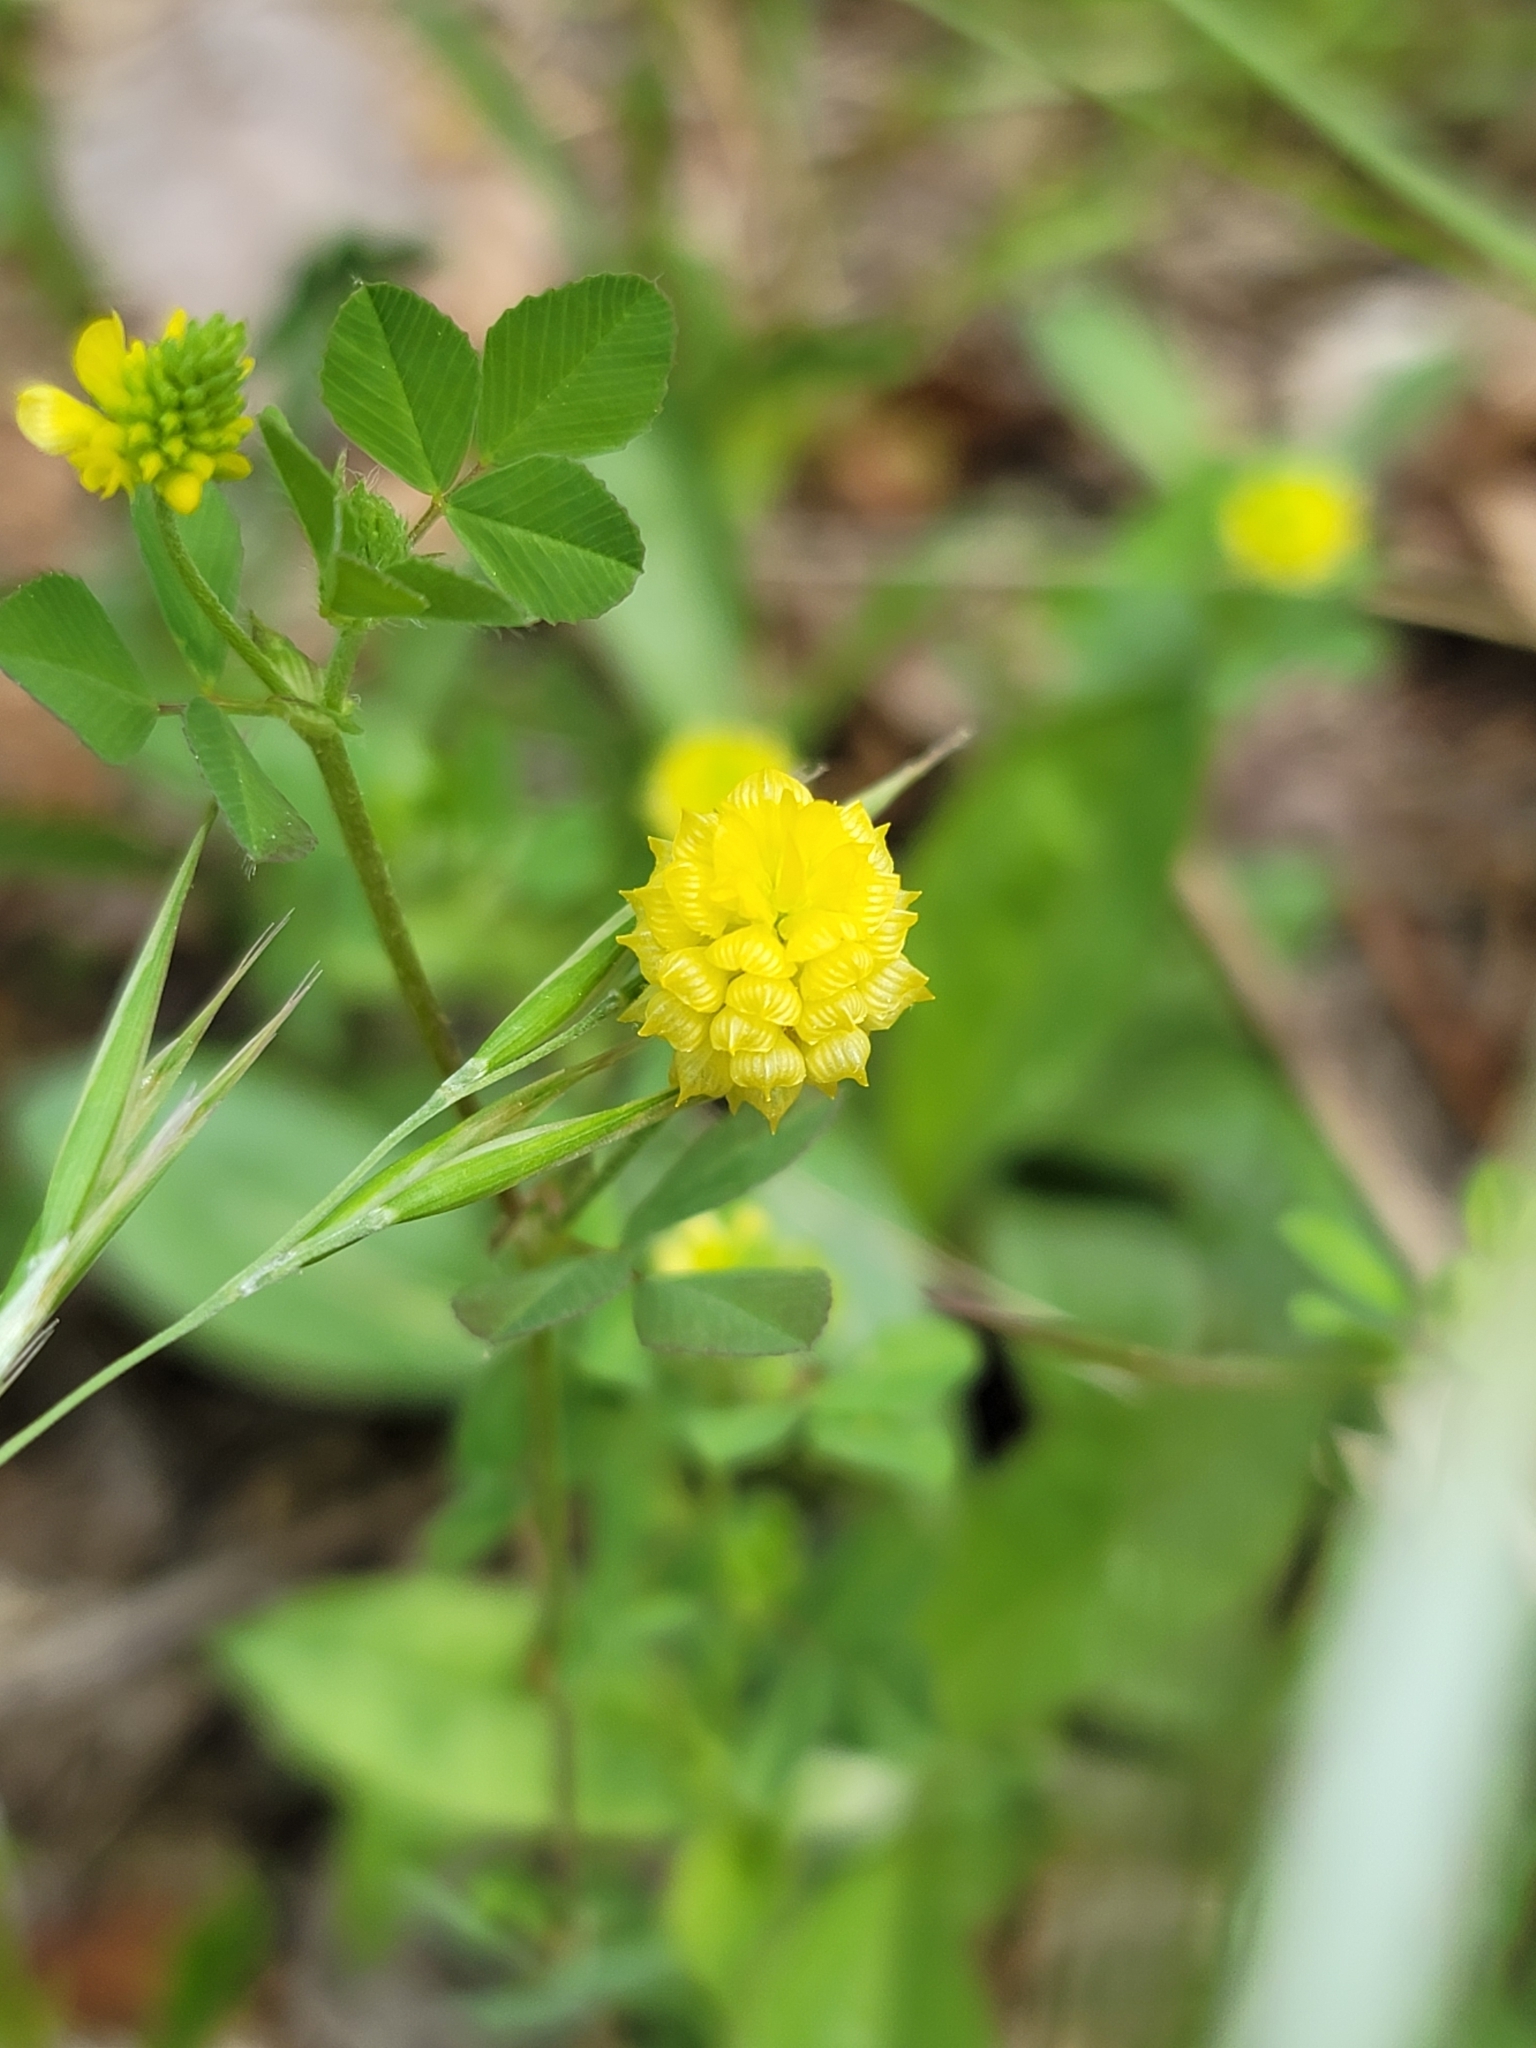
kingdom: Plantae
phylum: Tracheophyta
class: Magnoliopsida
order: Fabales
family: Fabaceae
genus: Trifolium
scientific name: Trifolium campestre
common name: Field clover
